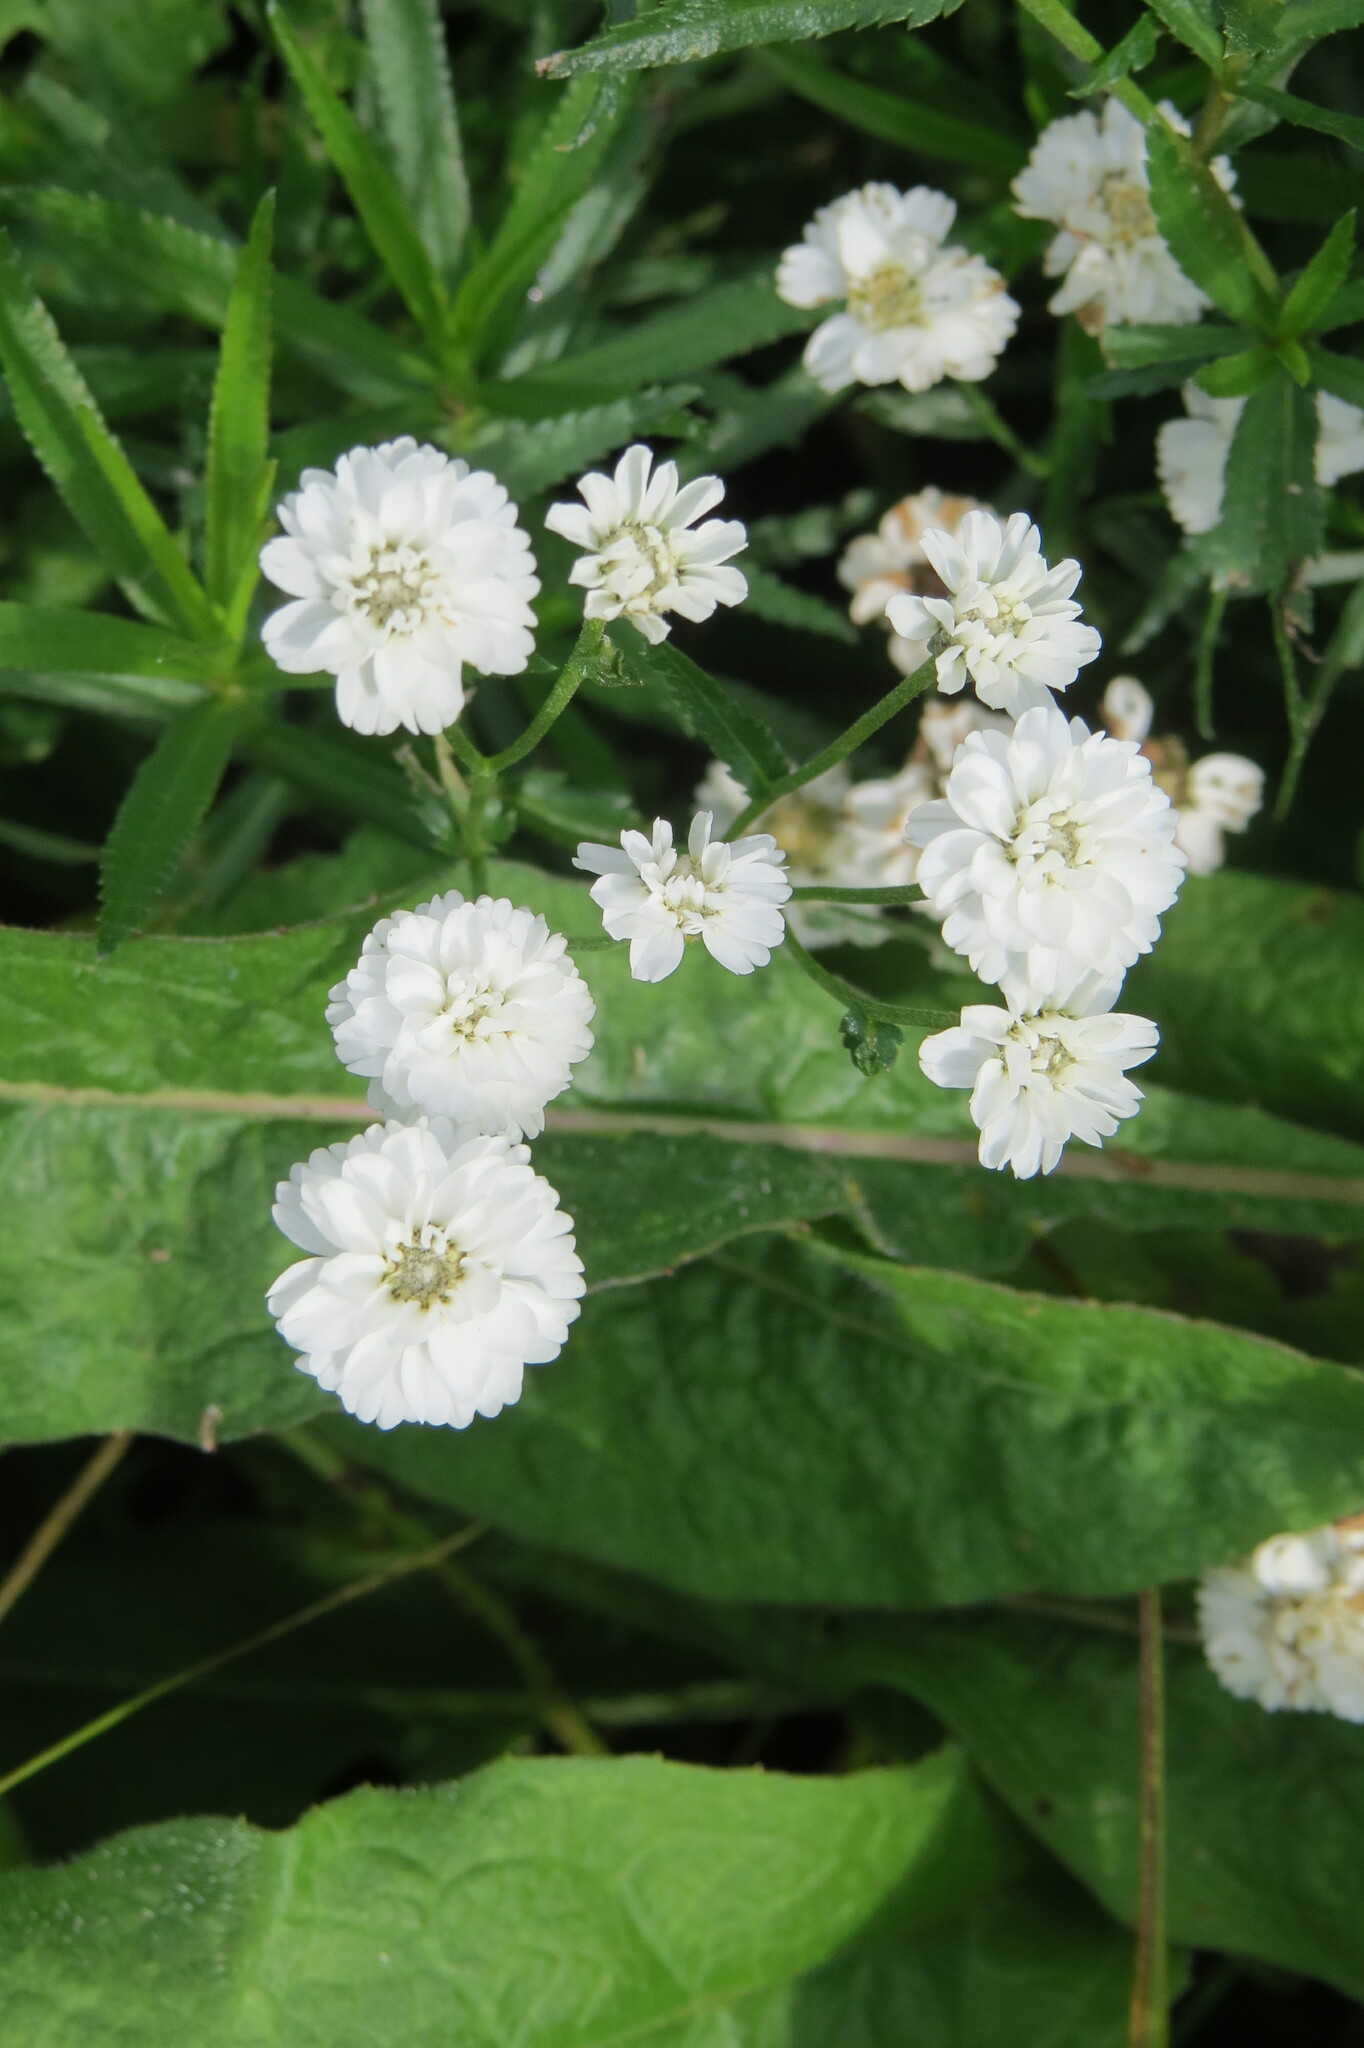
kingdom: Plantae
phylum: Tracheophyta
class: Magnoliopsida
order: Asterales
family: Asteraceae
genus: Achillea
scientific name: Achillea ptarmica
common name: Sneezeweed
